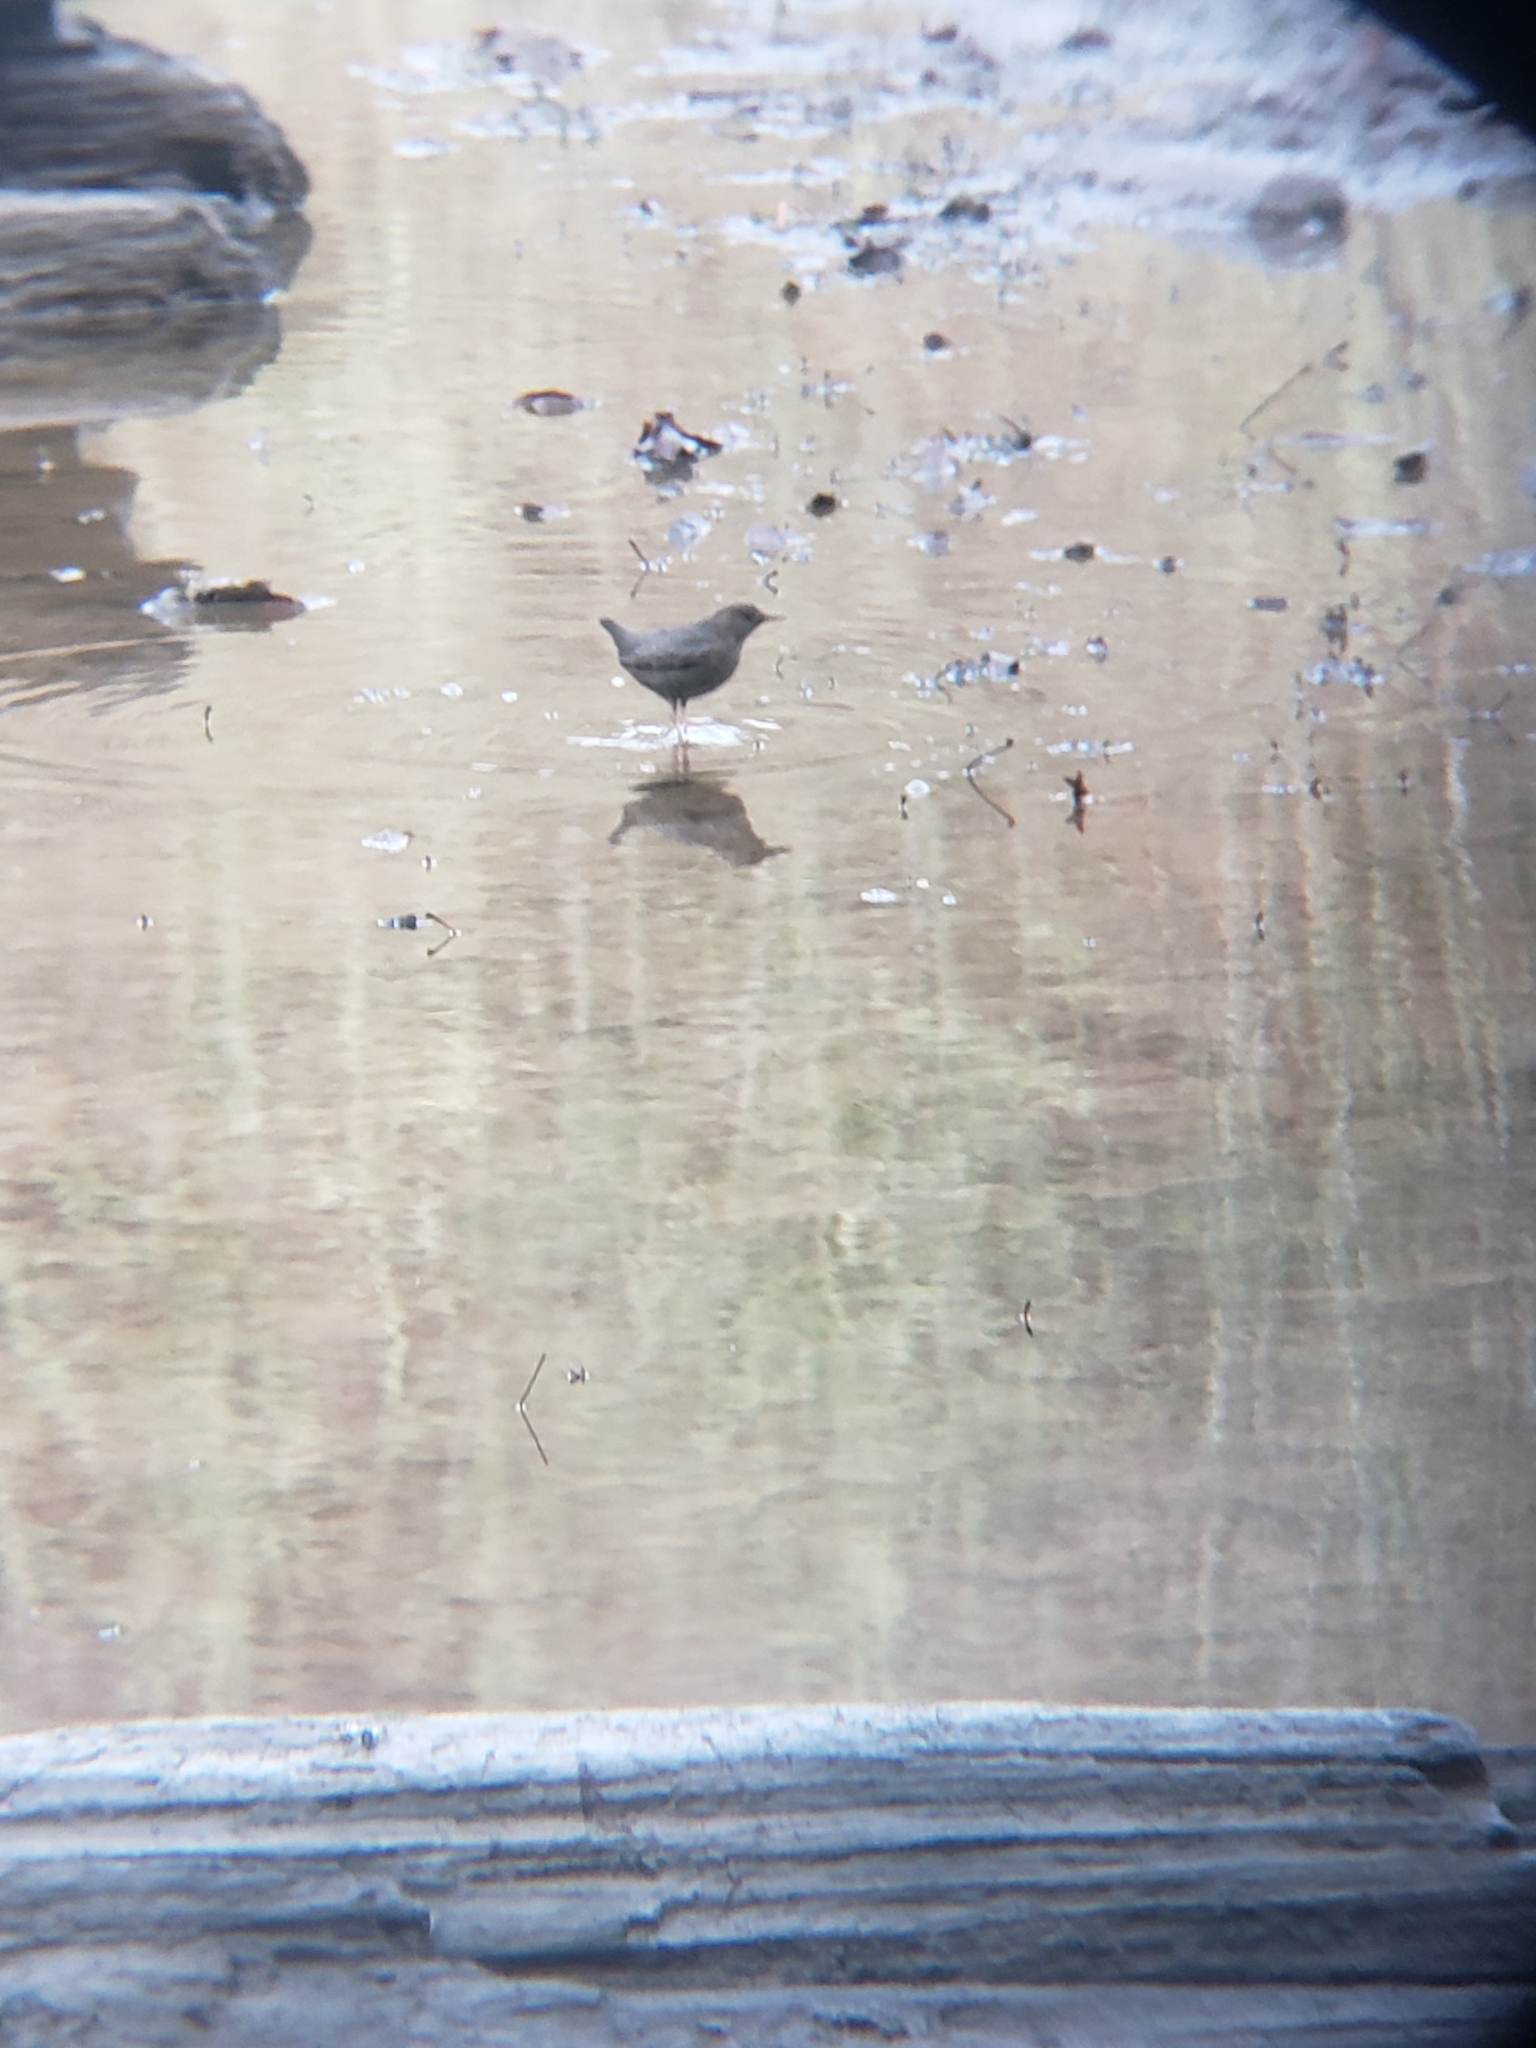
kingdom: Animalia
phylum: Chordata
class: Aves
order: Passeriformes
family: Cinclidae
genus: Cinclus
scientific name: Cinclus mexicanus
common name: American dipper
